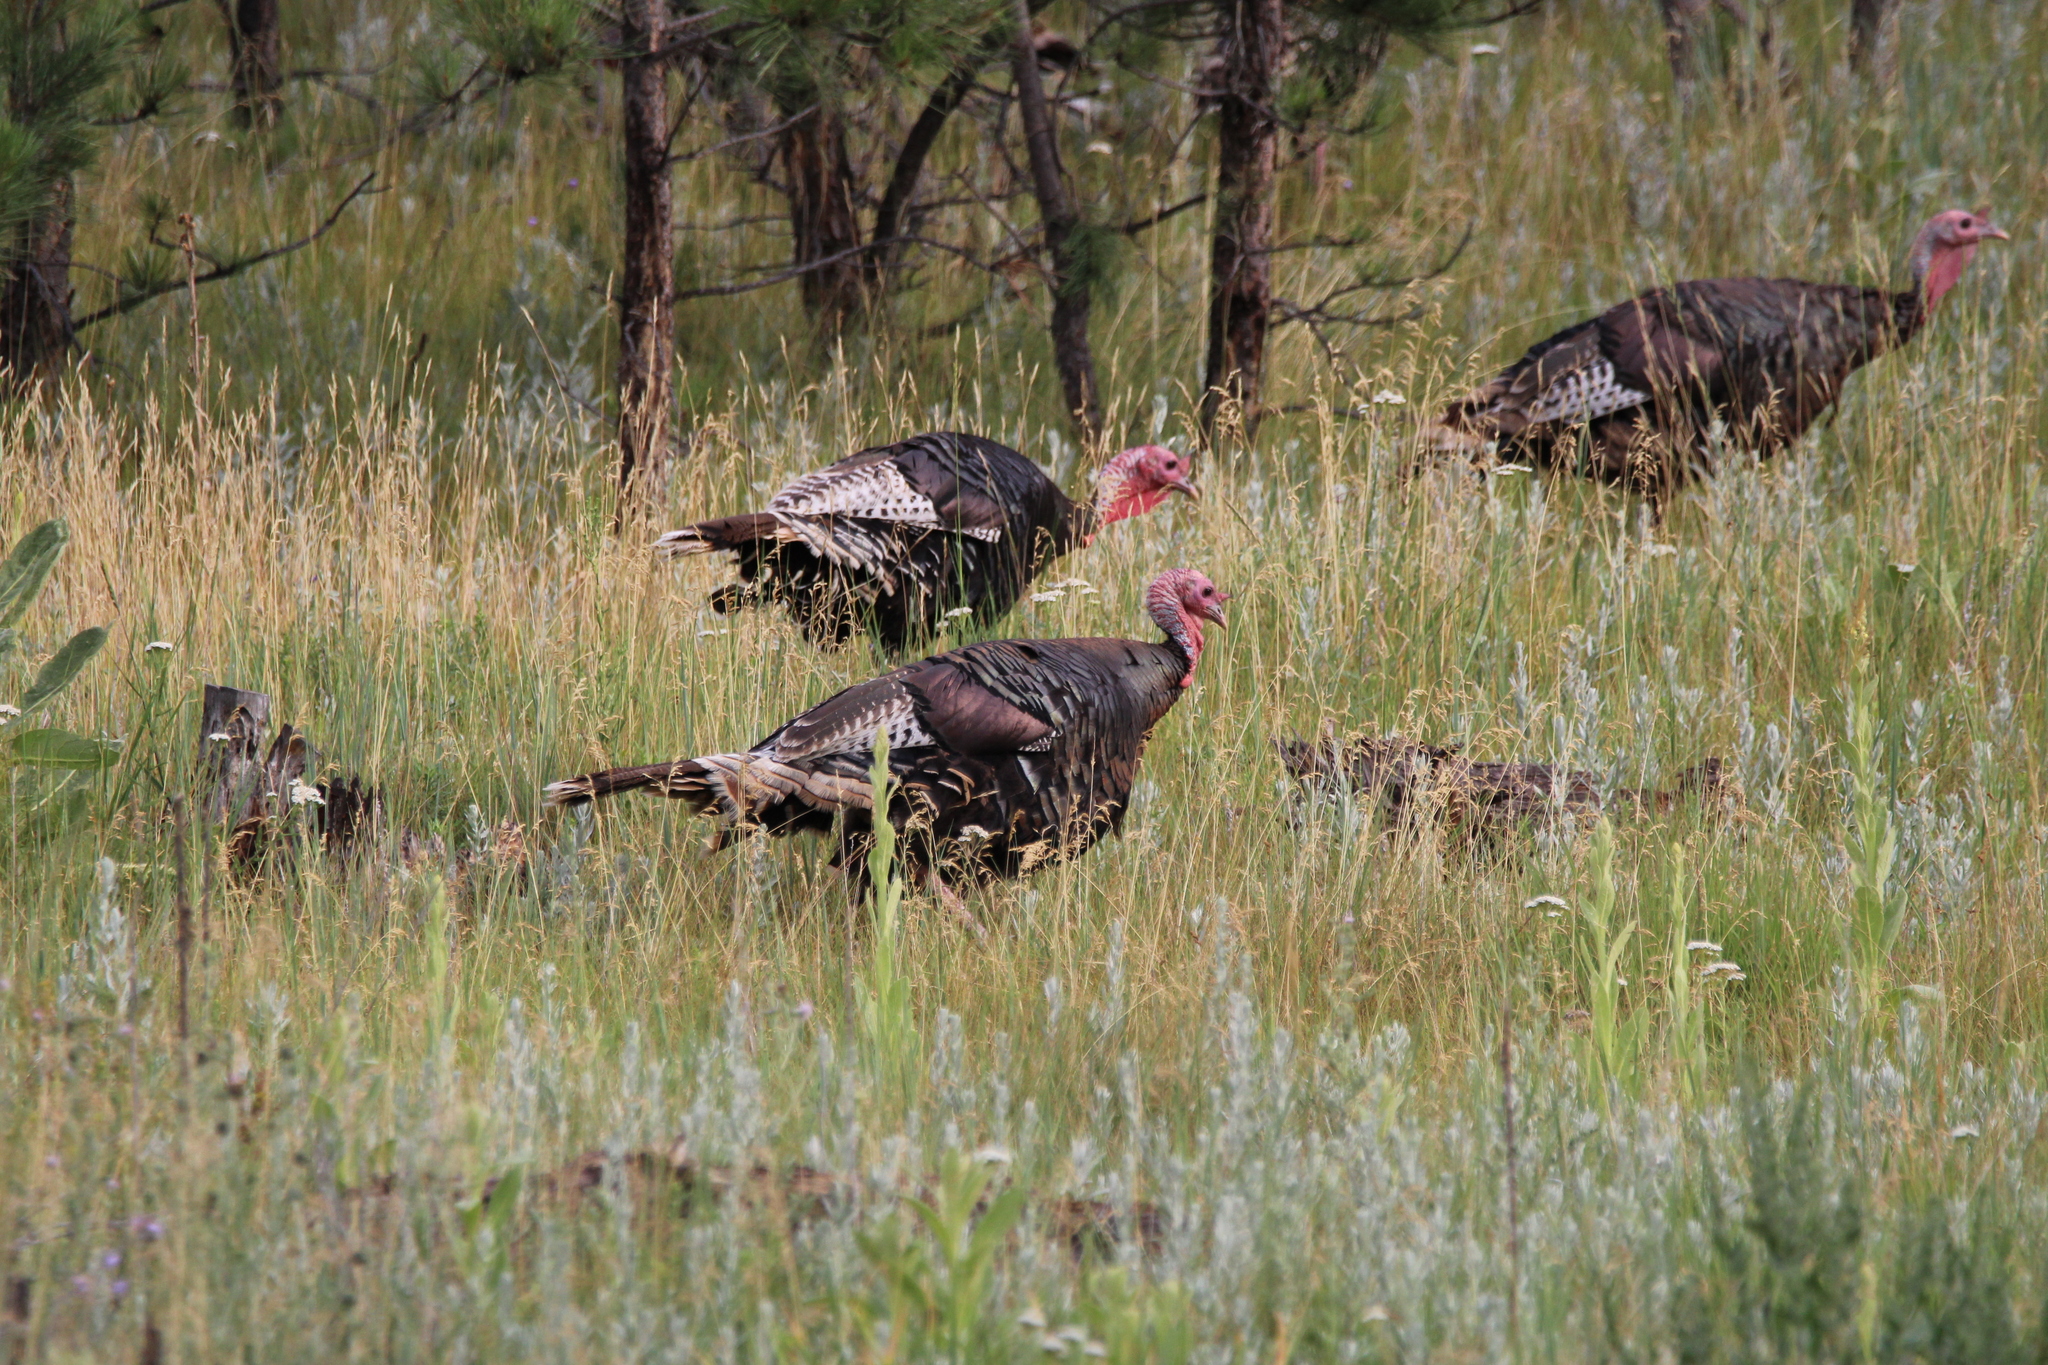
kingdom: Animalia
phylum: Chordata
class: Aves
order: Galliformes
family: Phasianidae
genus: Meleagris
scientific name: Meleagris gallopavo
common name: Wild turkey
